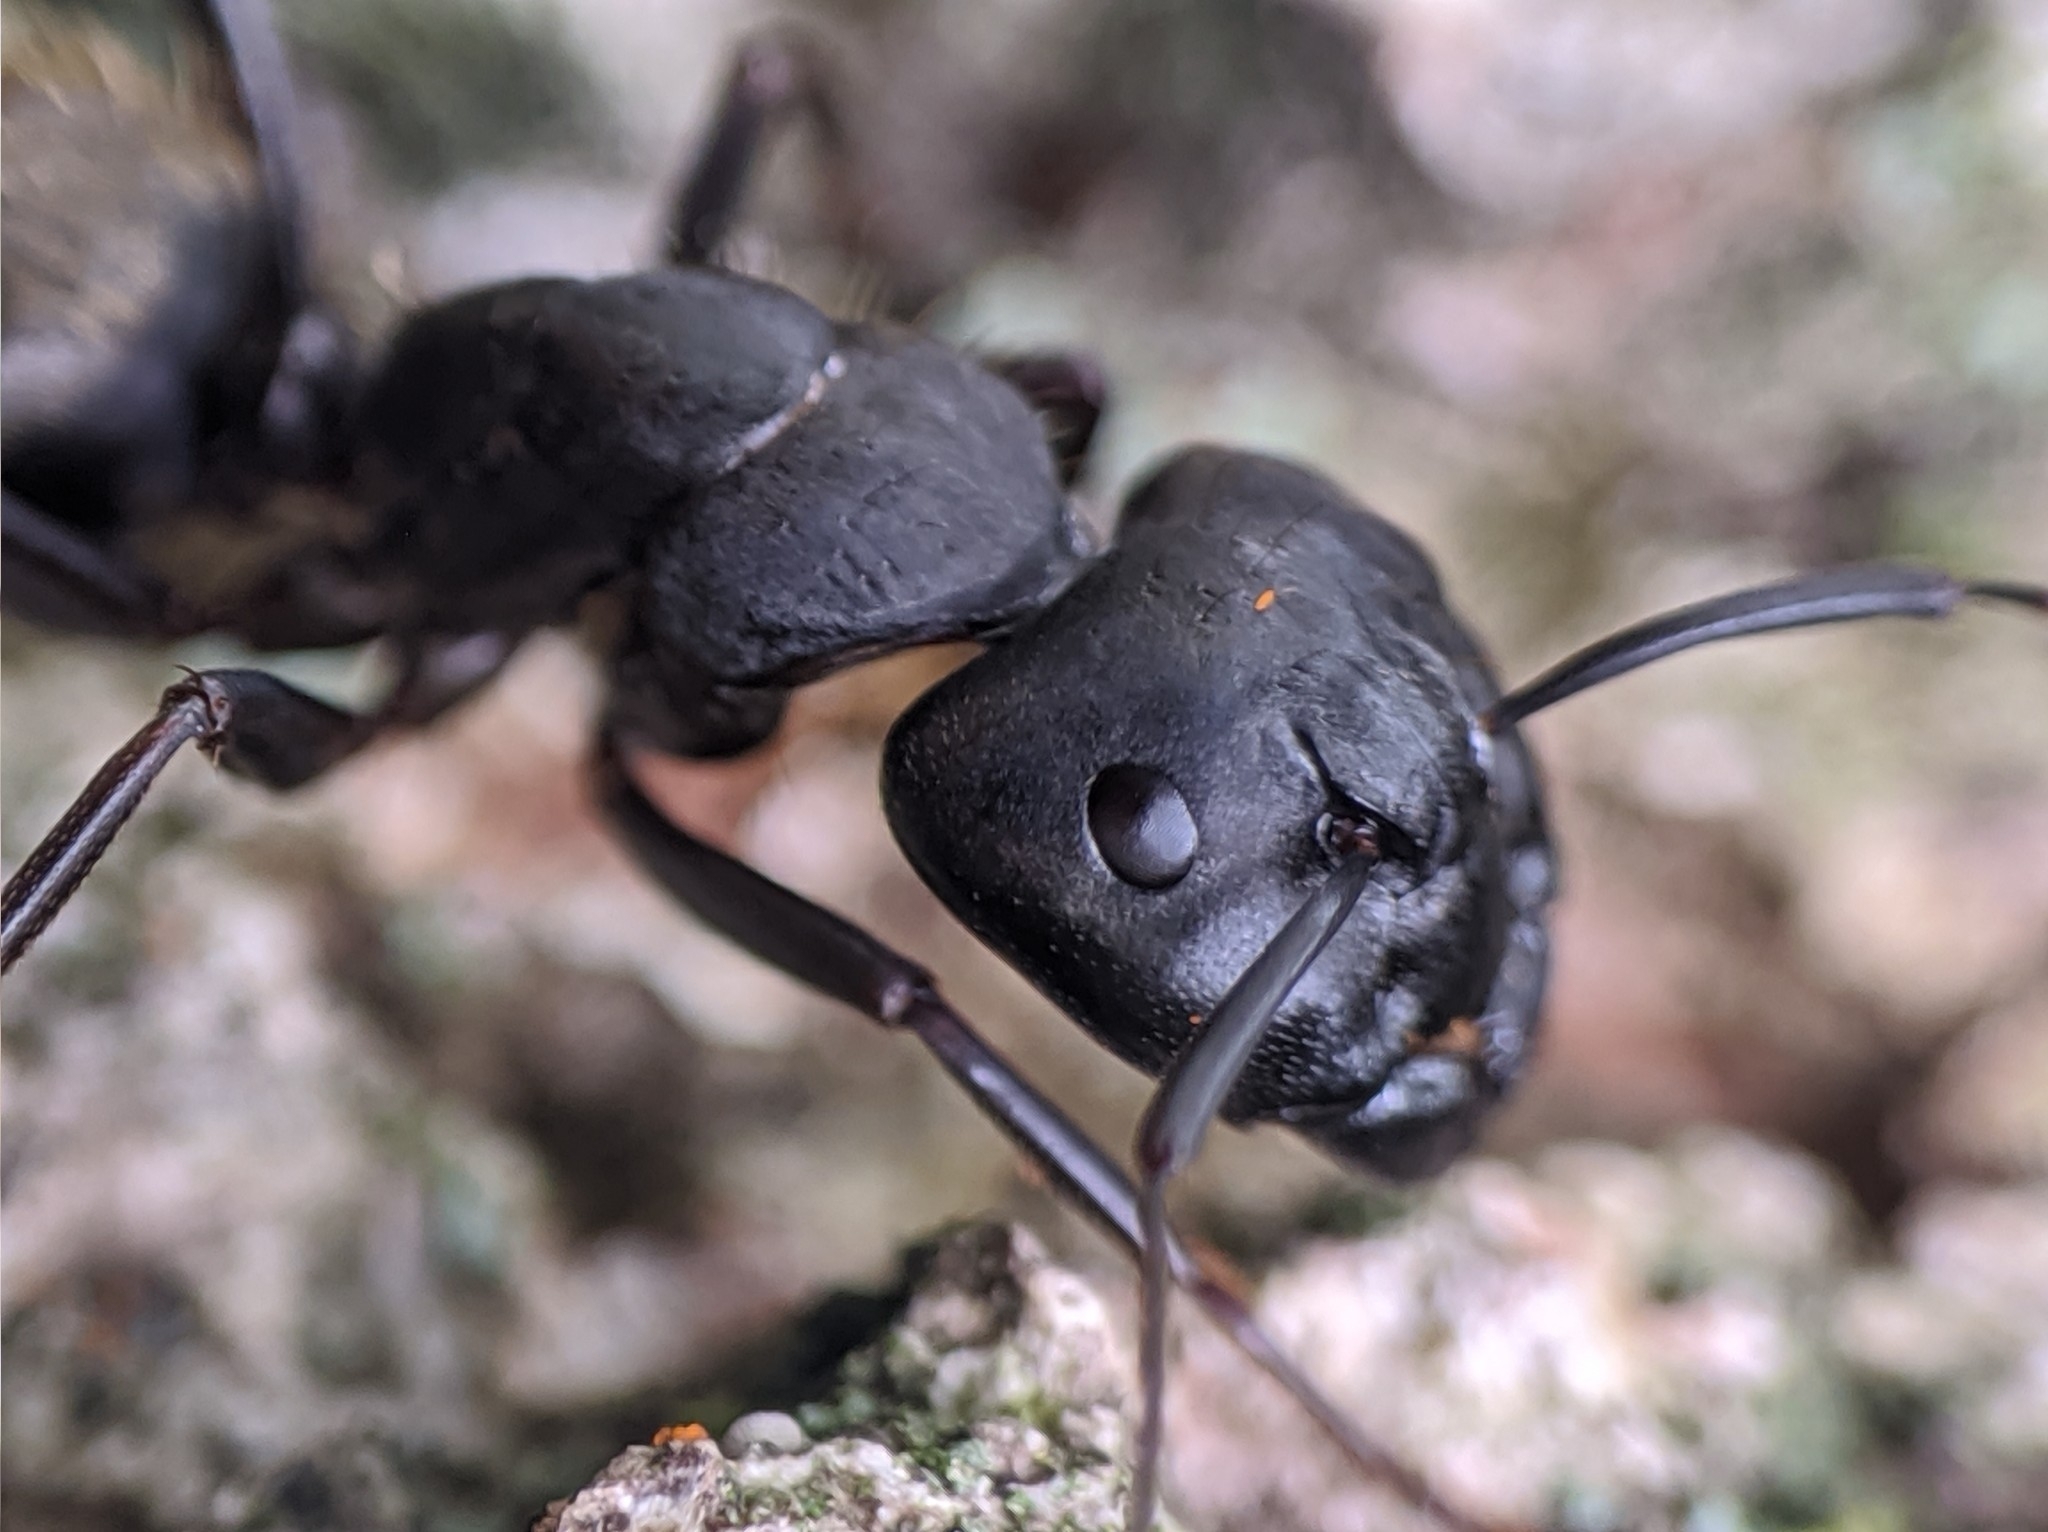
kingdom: Animalia
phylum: Arthropoda
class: Insecta
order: Hymenoptera
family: Formicidae
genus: Camponotus
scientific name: Camponotus pennsylvanicus
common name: Black carpenter ant
